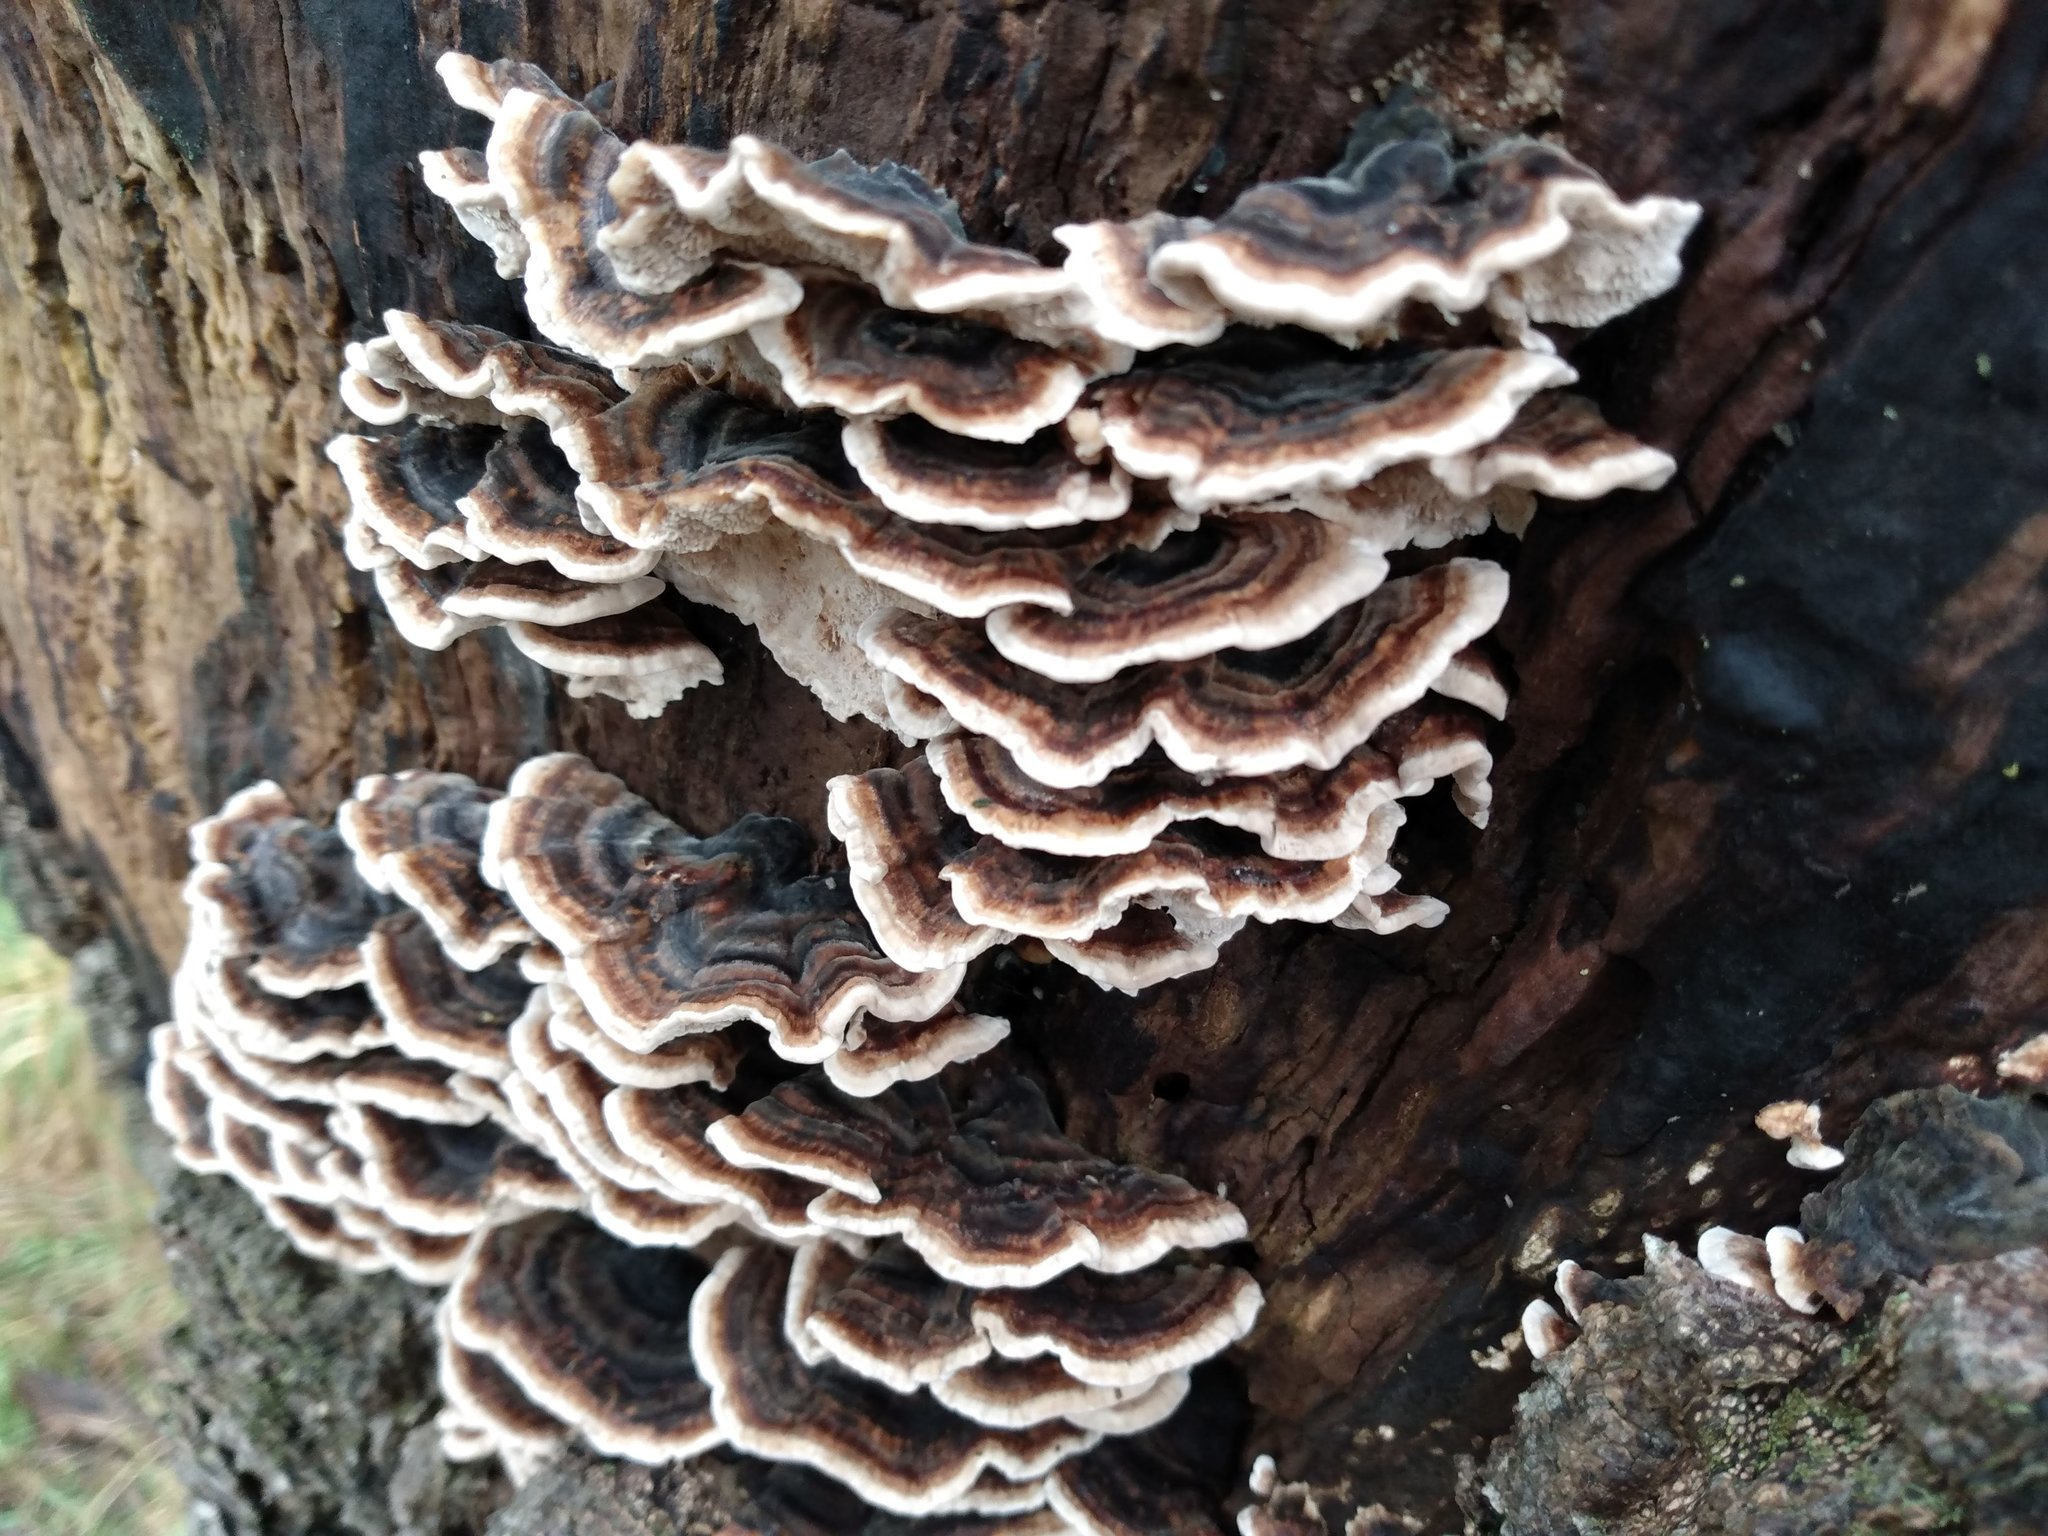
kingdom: Fungi
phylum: Basidiomycota
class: Agaricomycetes
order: Polyporales
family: Polyporaceae
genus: Trametes
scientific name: Trametes versicolor
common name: Turkeytail
